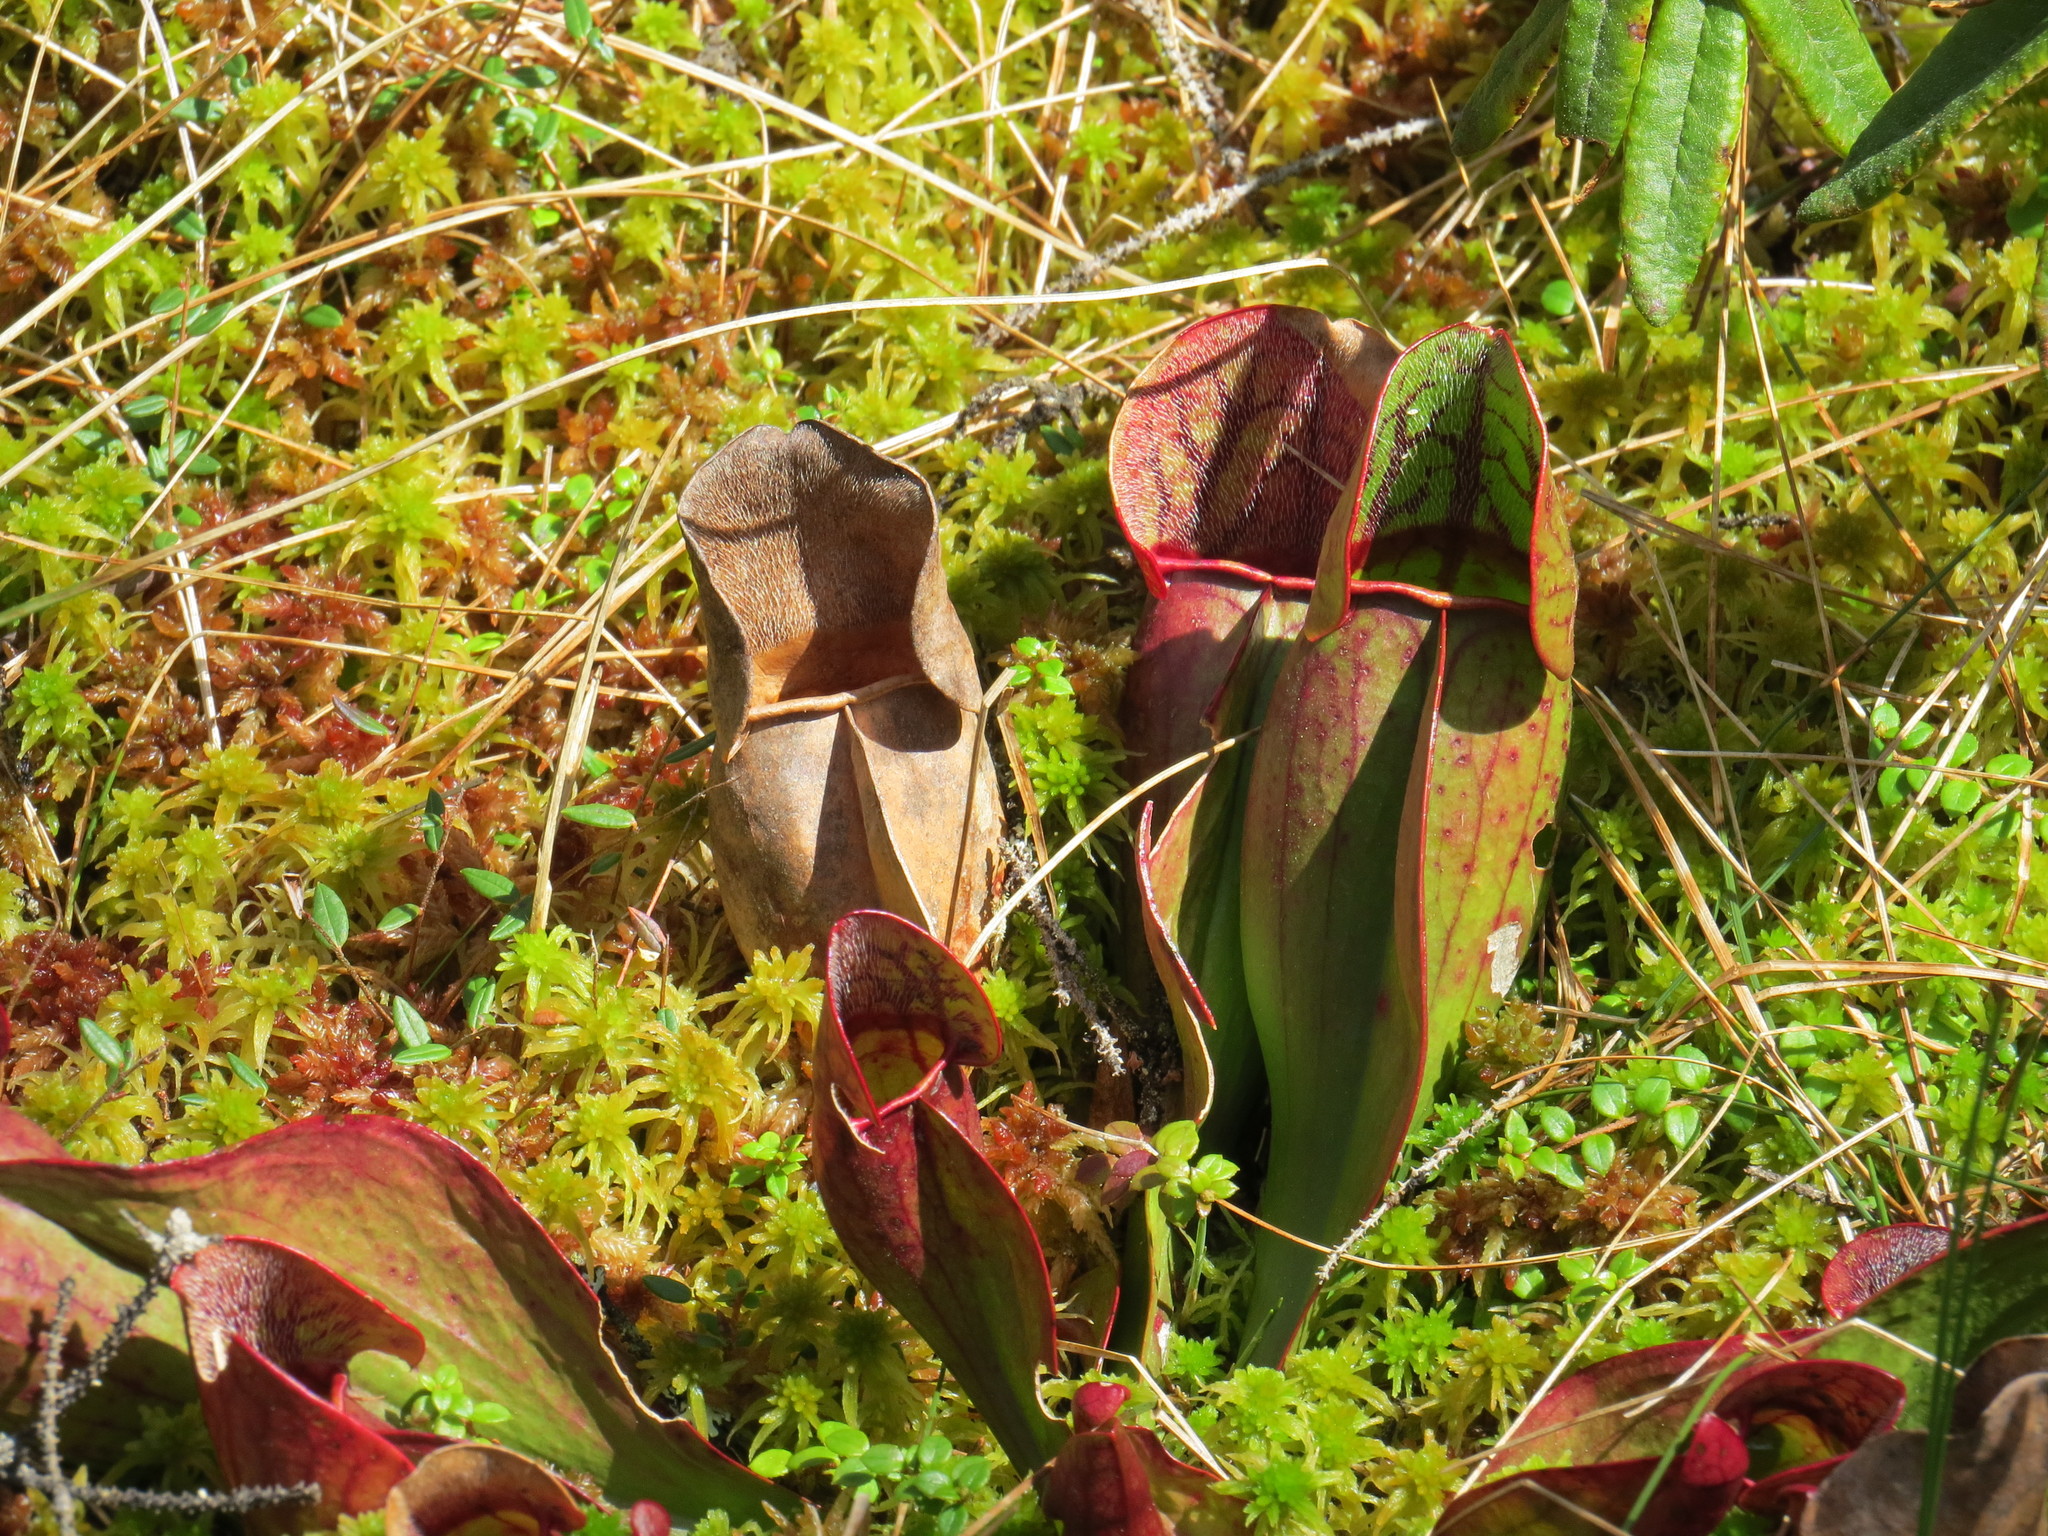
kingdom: Plantae
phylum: Tracheophyta
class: Magnoliopsida
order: Ericales
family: Sarraceniaceae
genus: Sarracenia
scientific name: Sarracenia purpurea
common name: Pitcherplant
